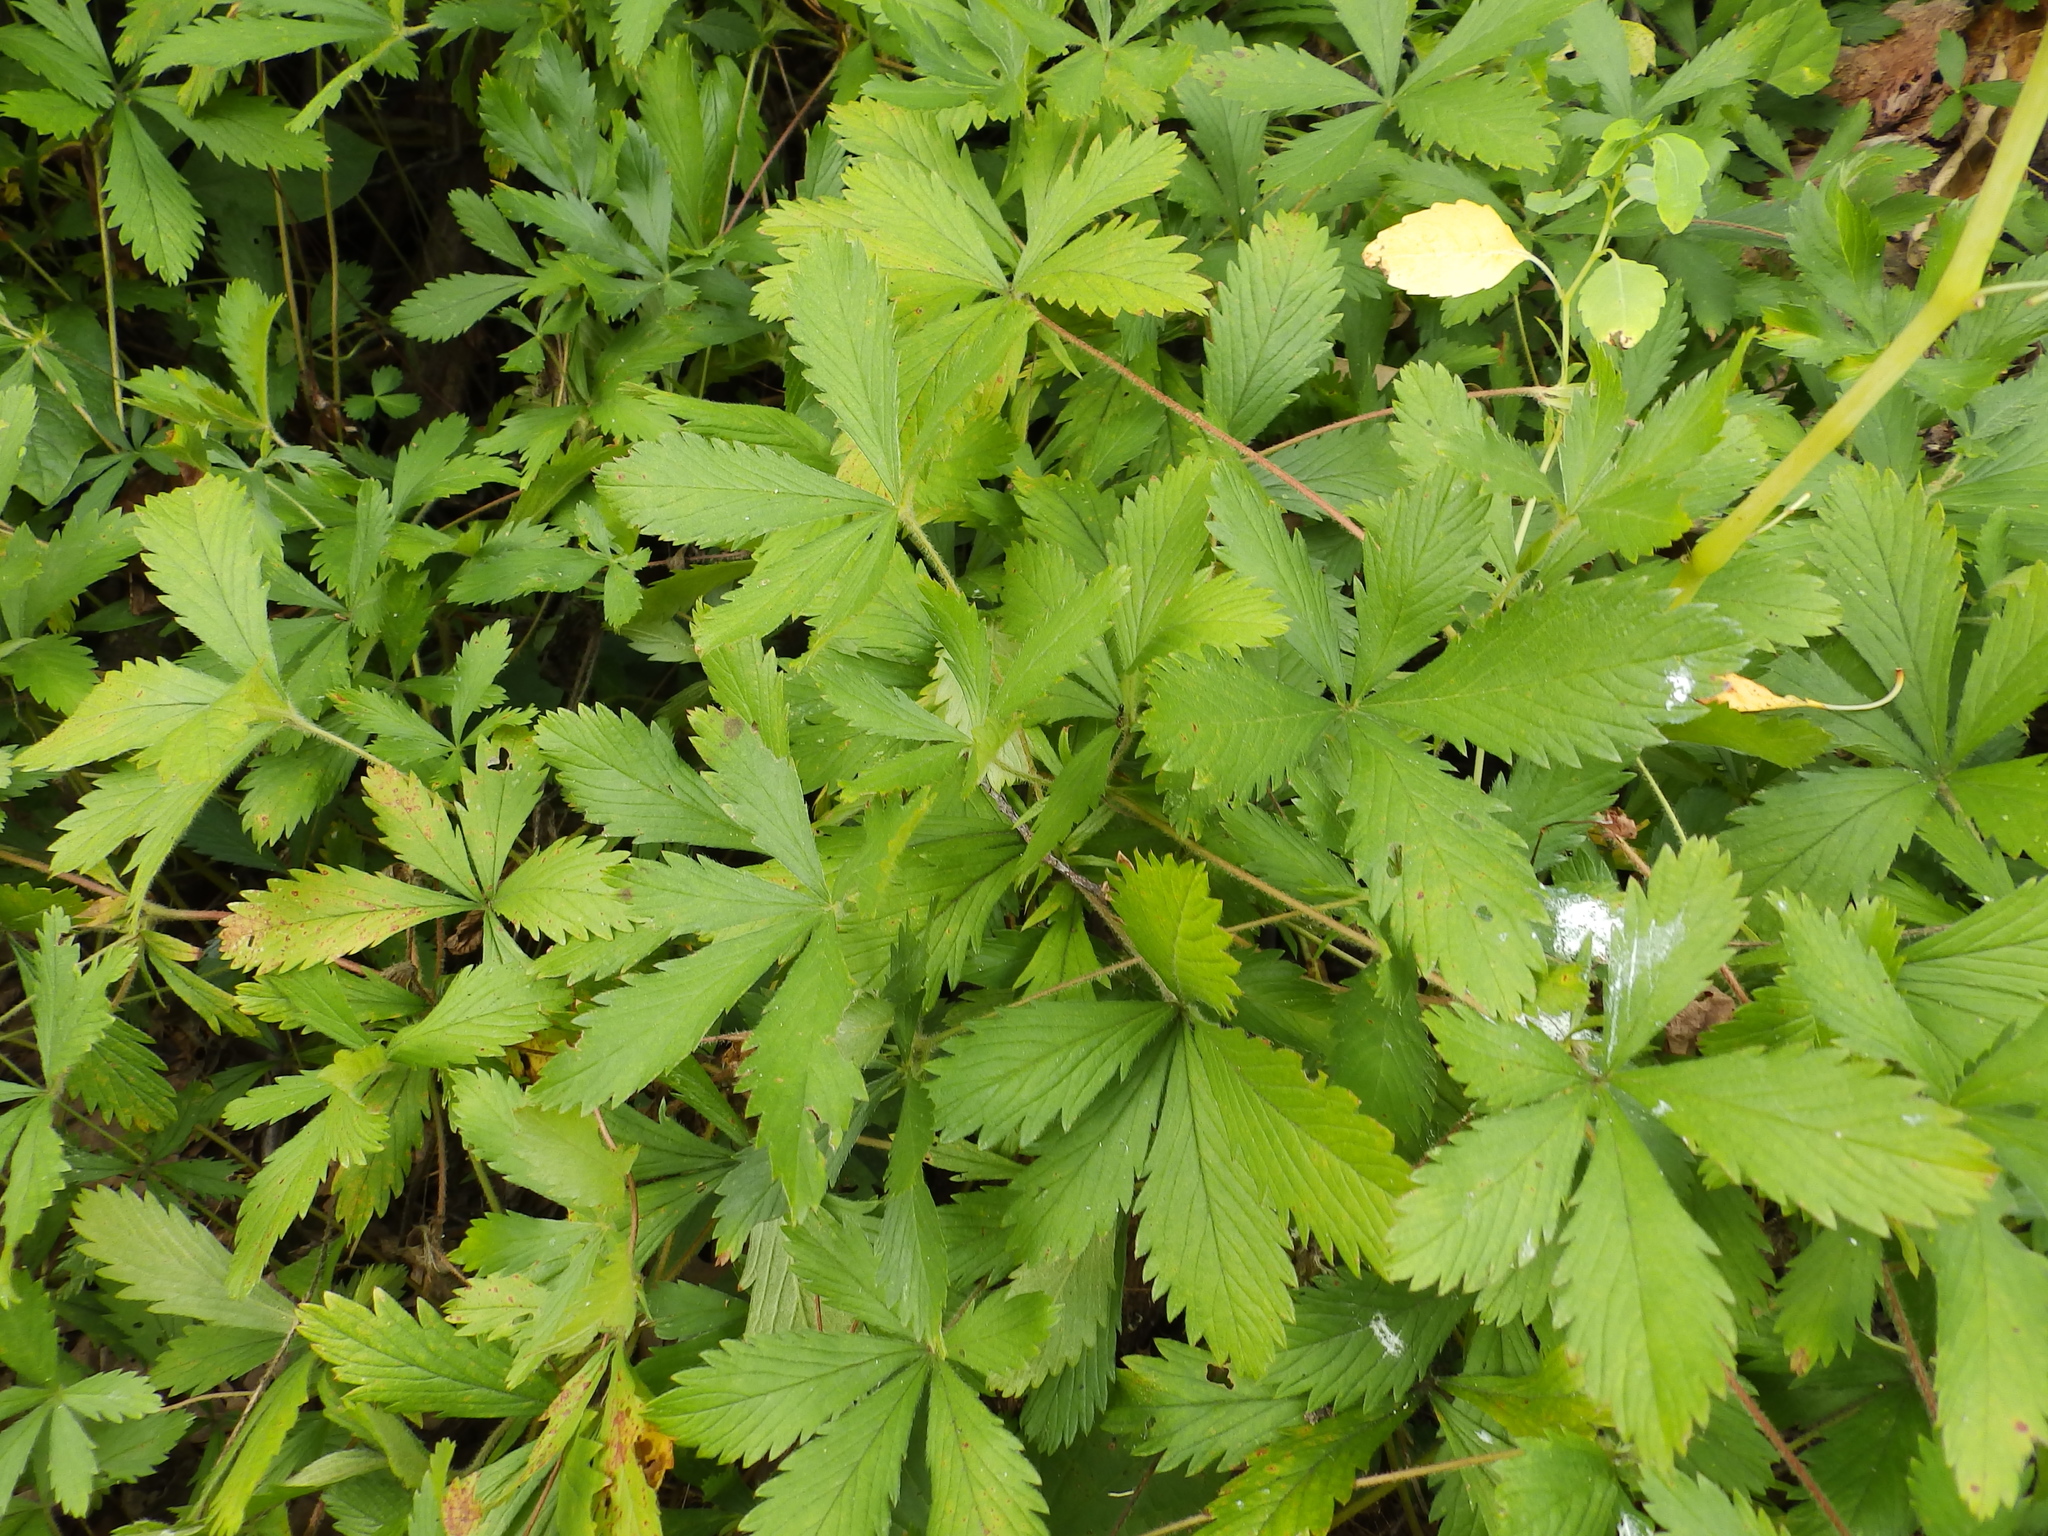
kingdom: Plantae
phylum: Tracheophyta
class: Magnoliopsida
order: Rosales
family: Rosaceae
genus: Potentilla
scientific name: Potentilla simplex
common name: Old field cinquefoil
